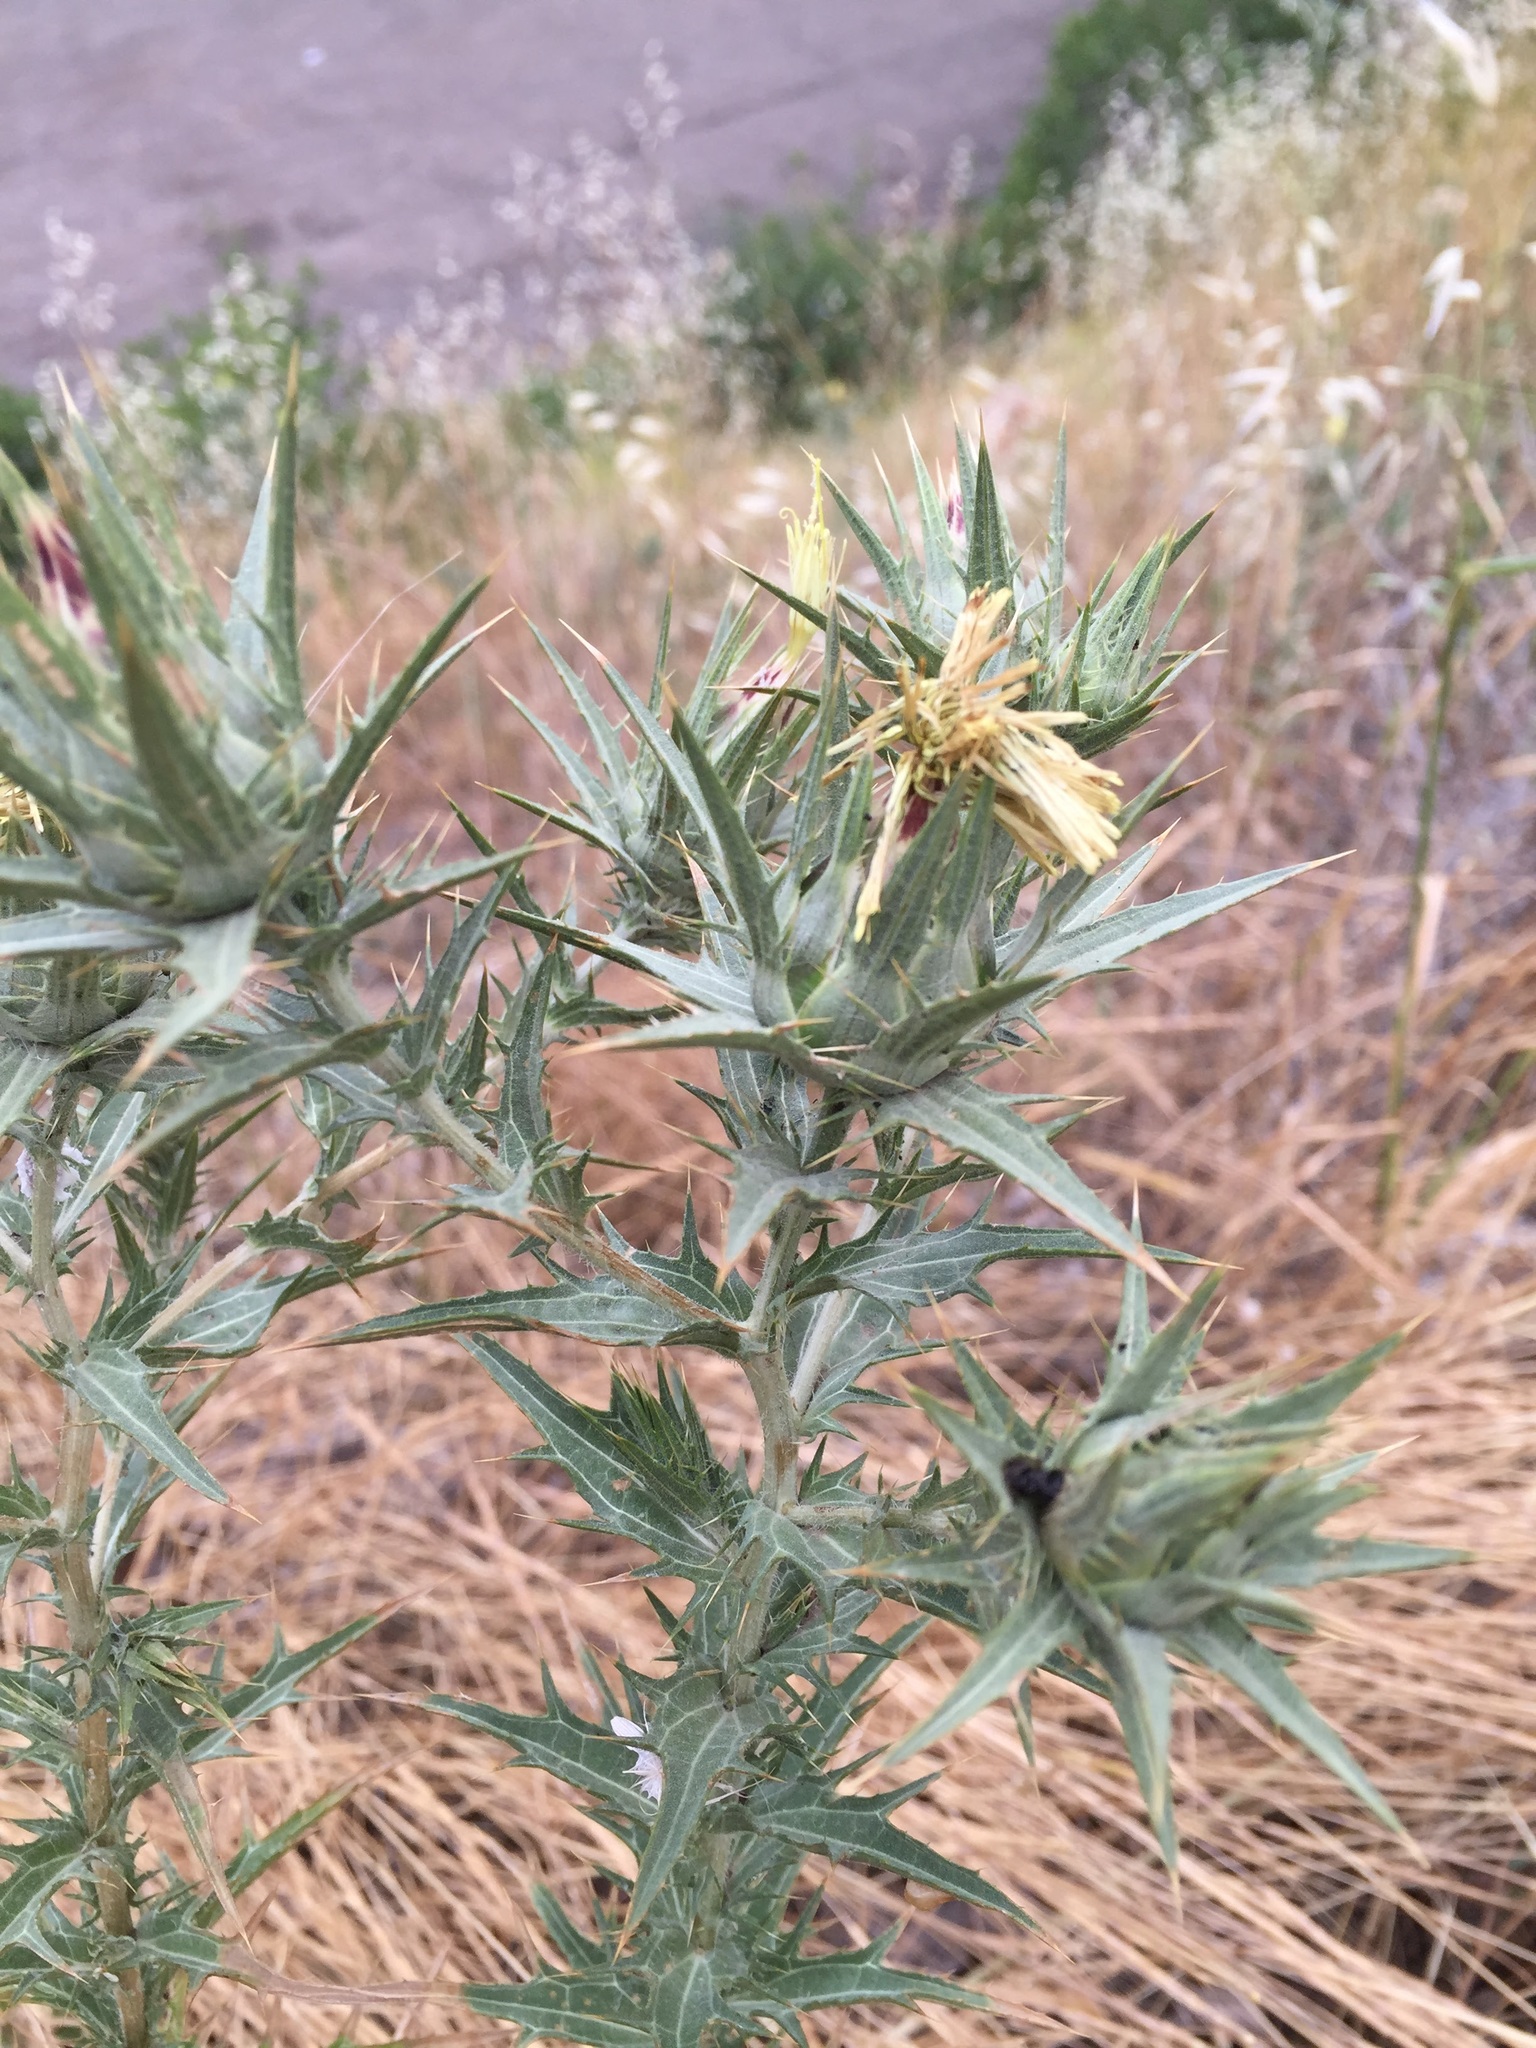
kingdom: Plantae
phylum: Tracheophyta
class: Magnoliopsida
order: Asterales
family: Asteraceae
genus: Carthamus
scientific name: Carthamus lanatus
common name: Downy safflower
